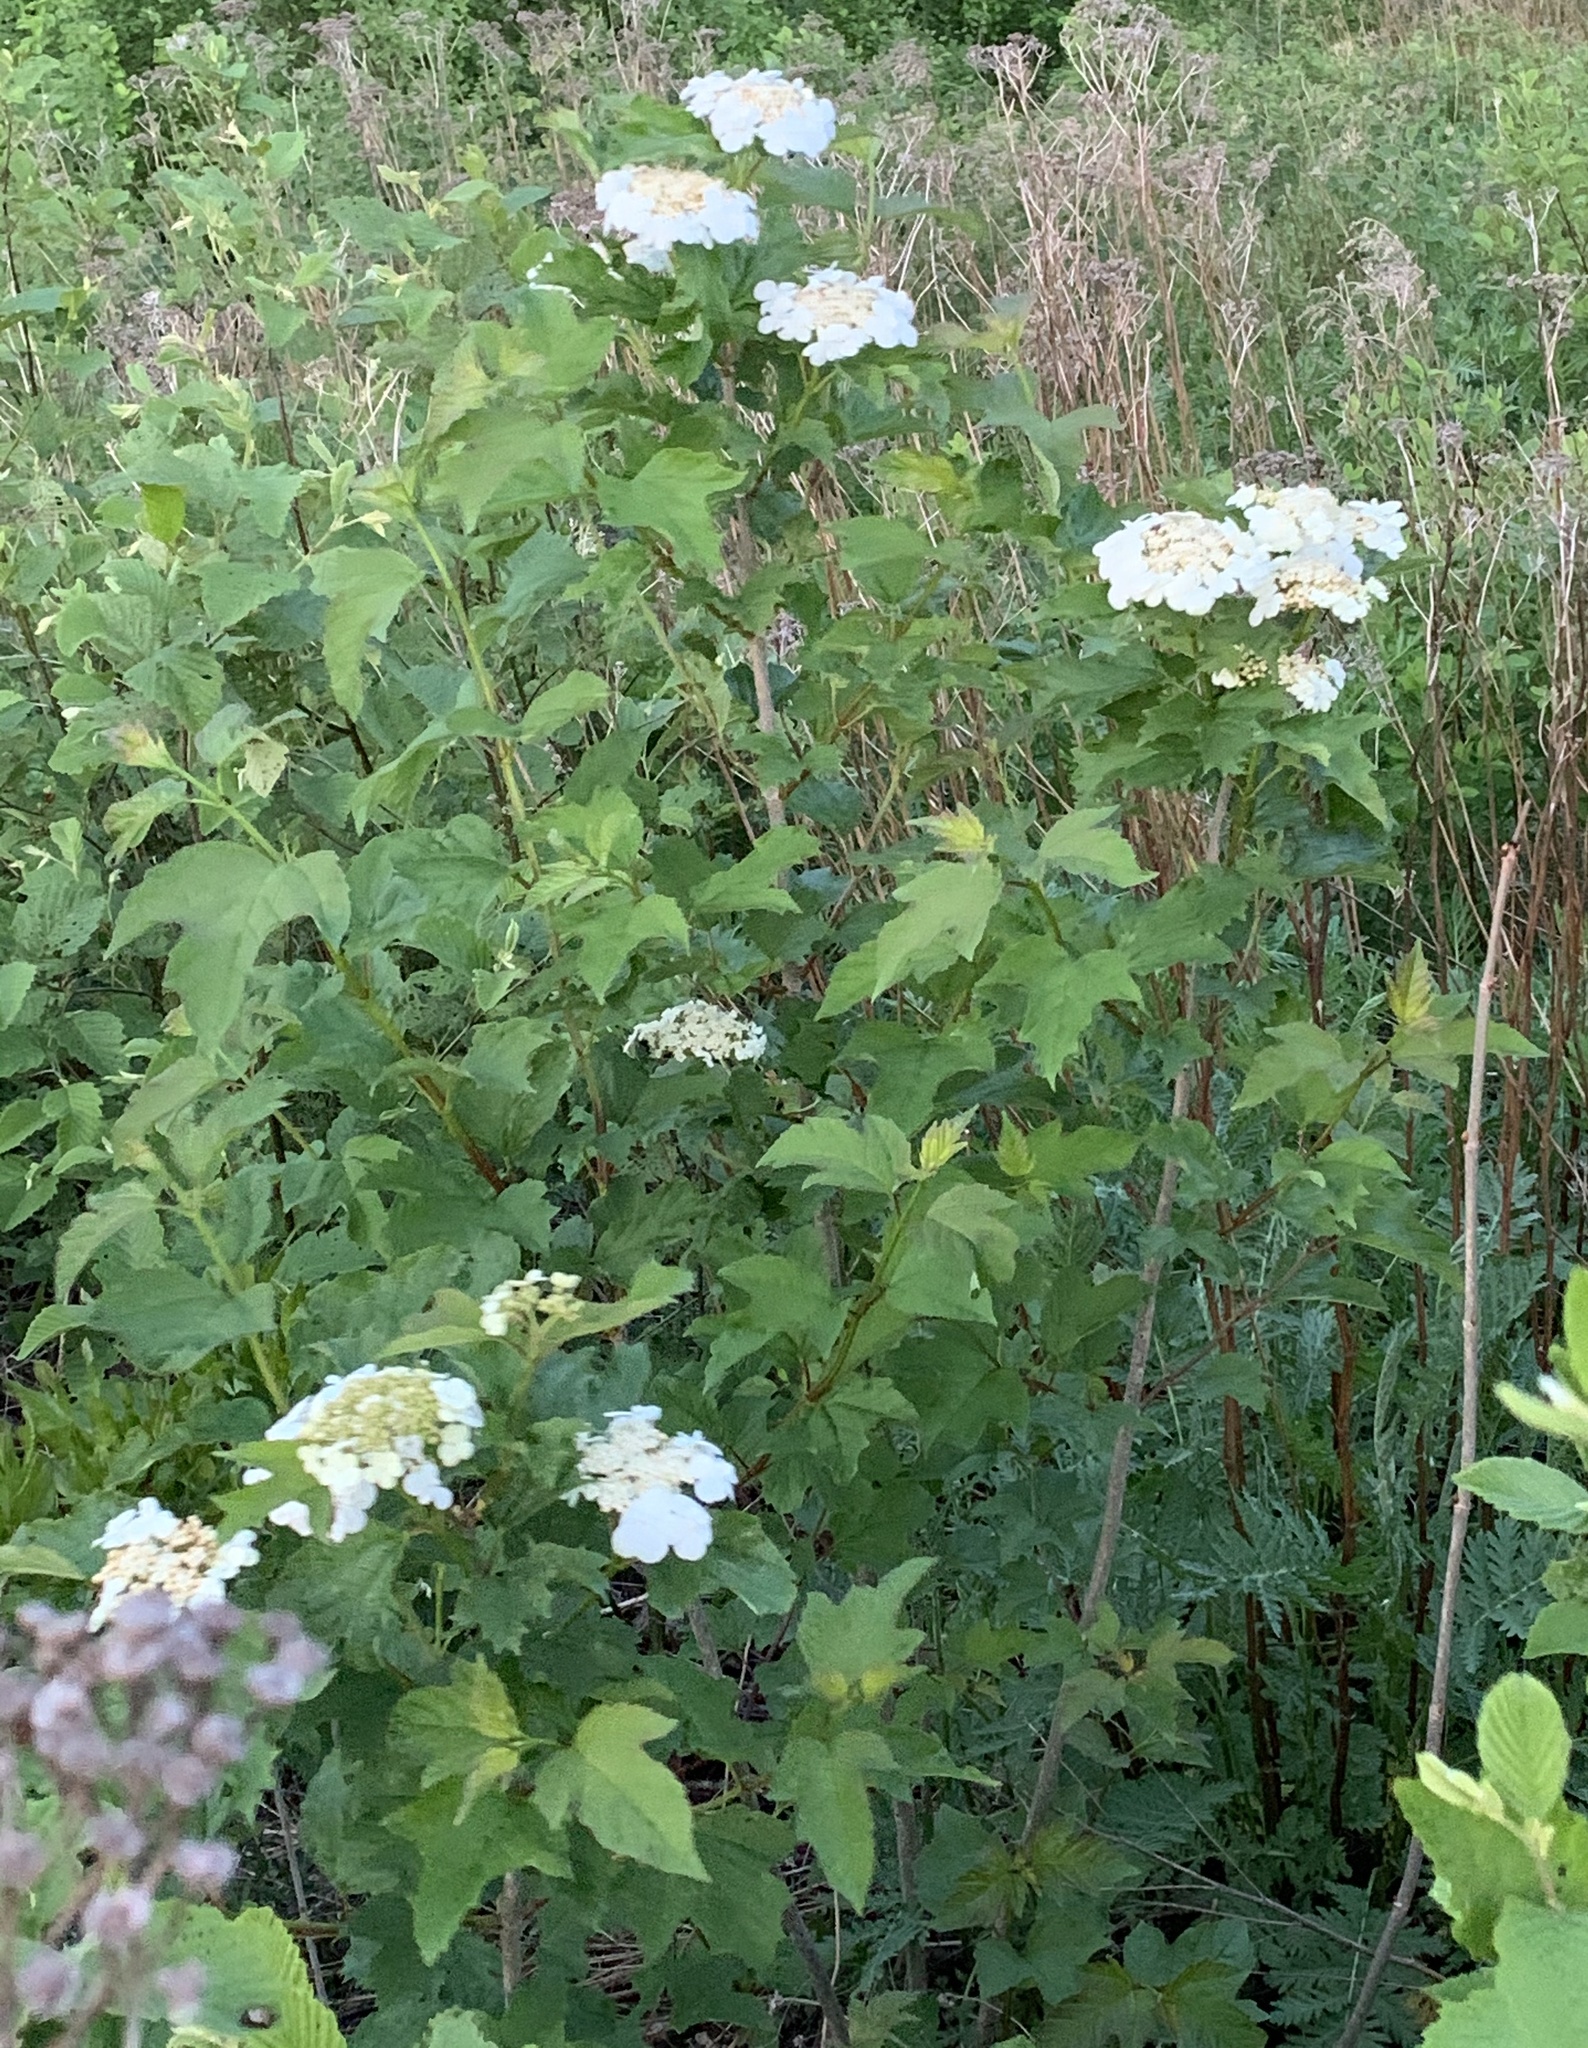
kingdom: Plantae
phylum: Tracheophyta
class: Magnoliopsida
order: Dipsacales
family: Viburnaceae
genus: Viburnum
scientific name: Viburnum opulus
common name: Guelder-rose
